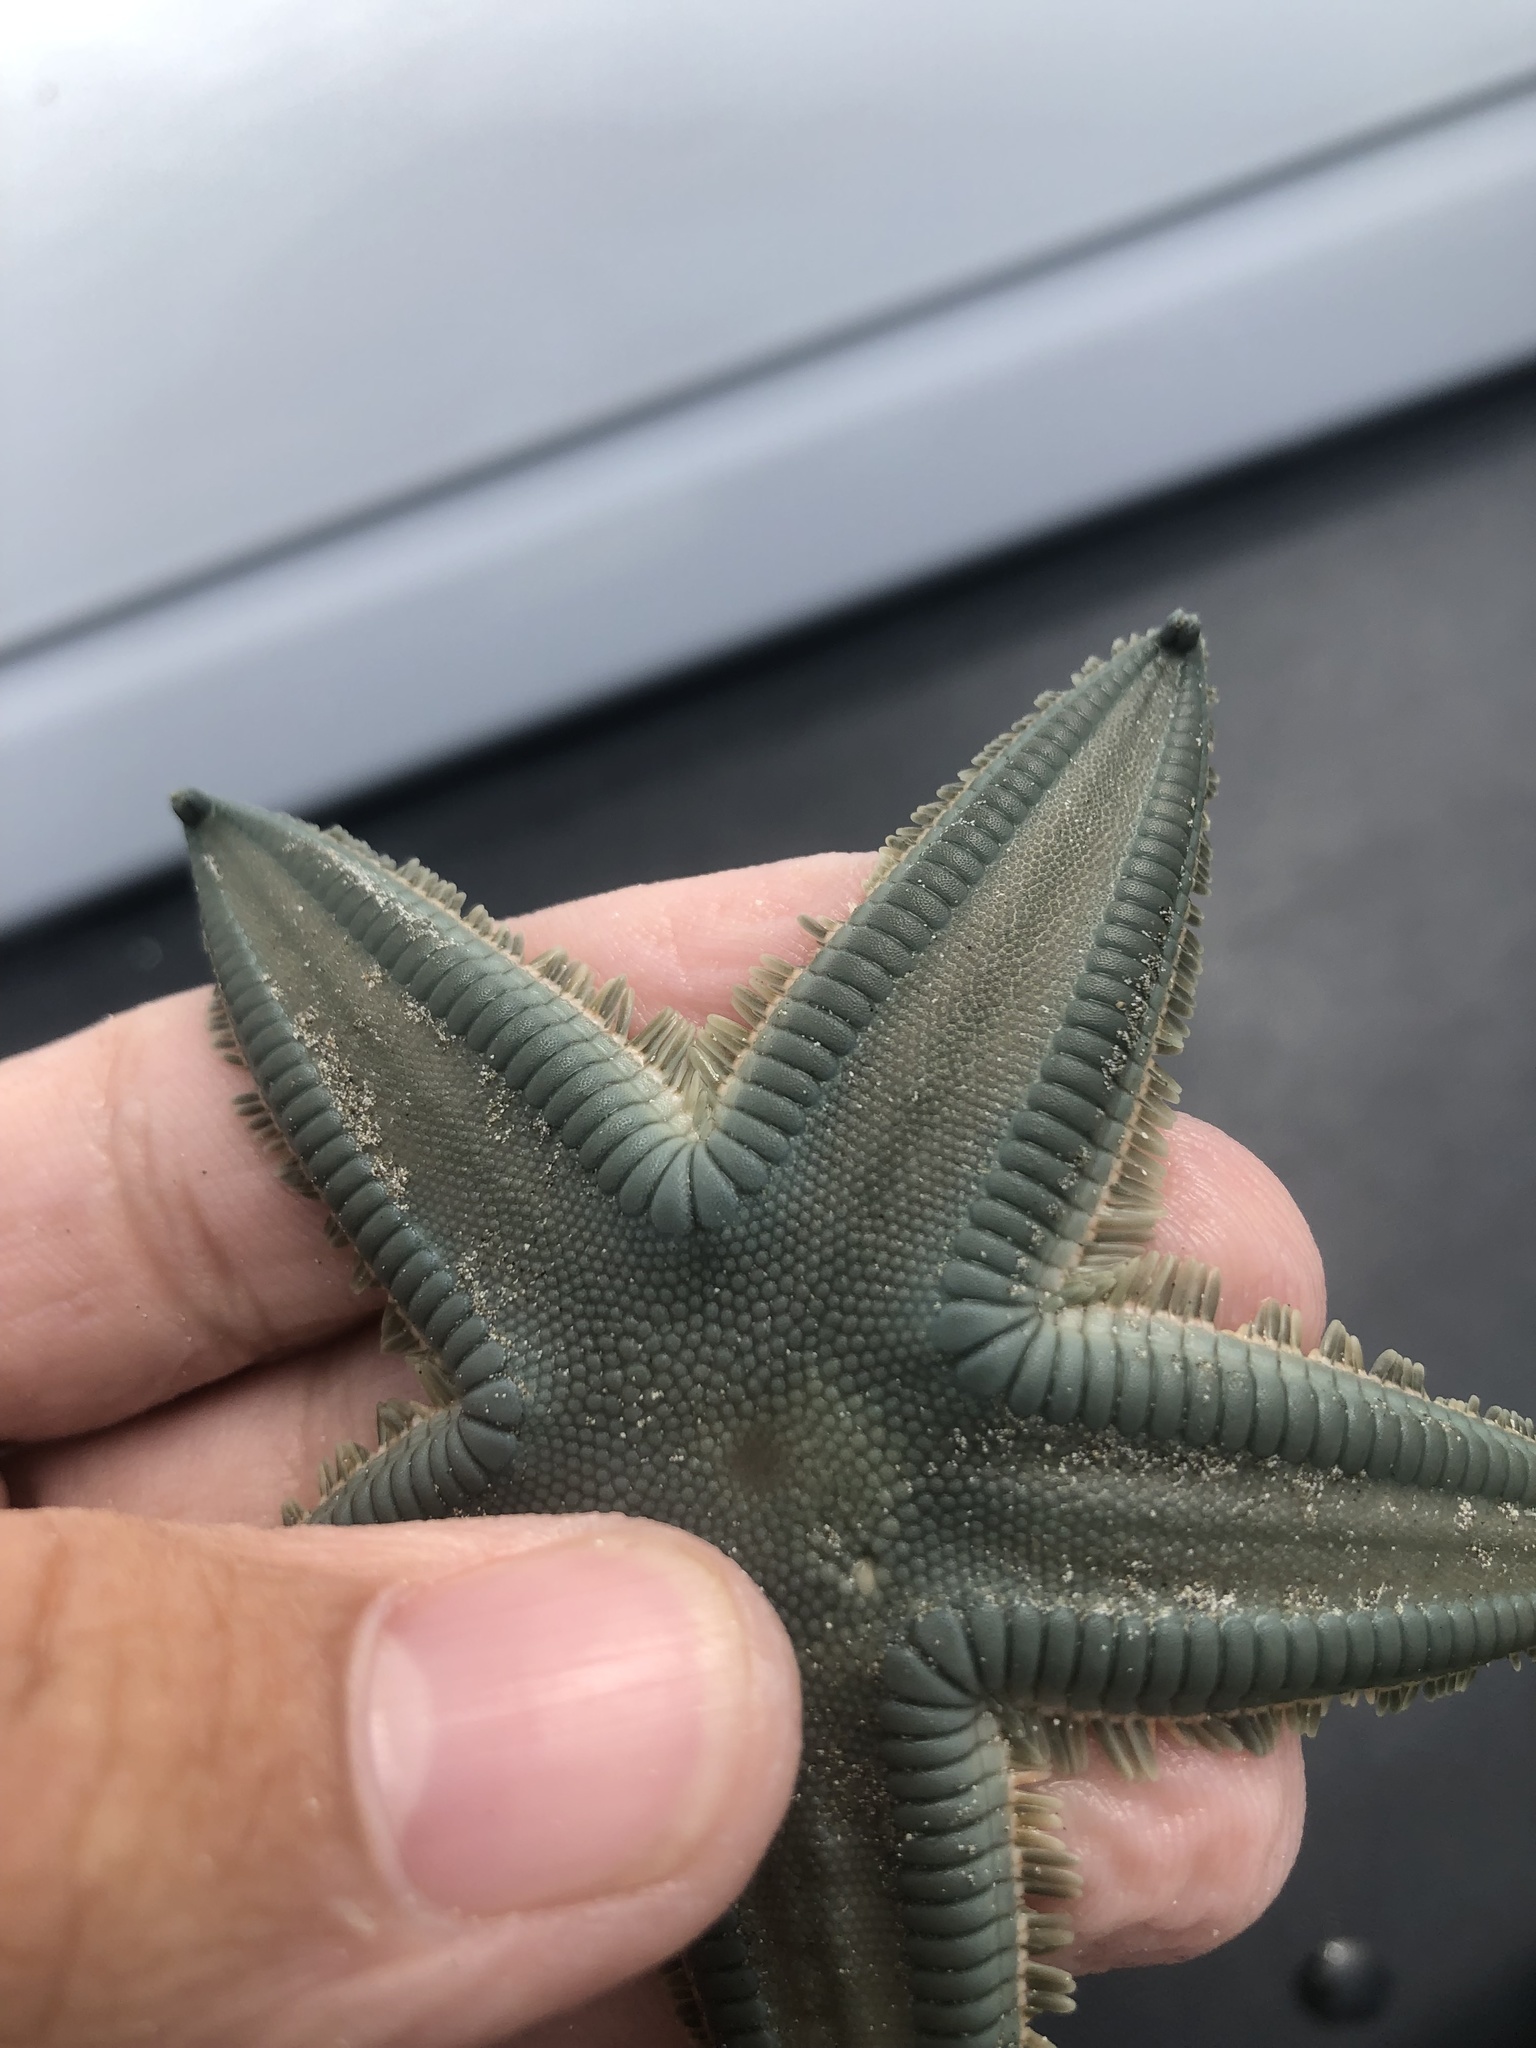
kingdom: Animalia
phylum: Echinodermata
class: Asteroidea
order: Paxillosida
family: Astropectinidae
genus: Astropecten
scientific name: Astropecten marginatus
